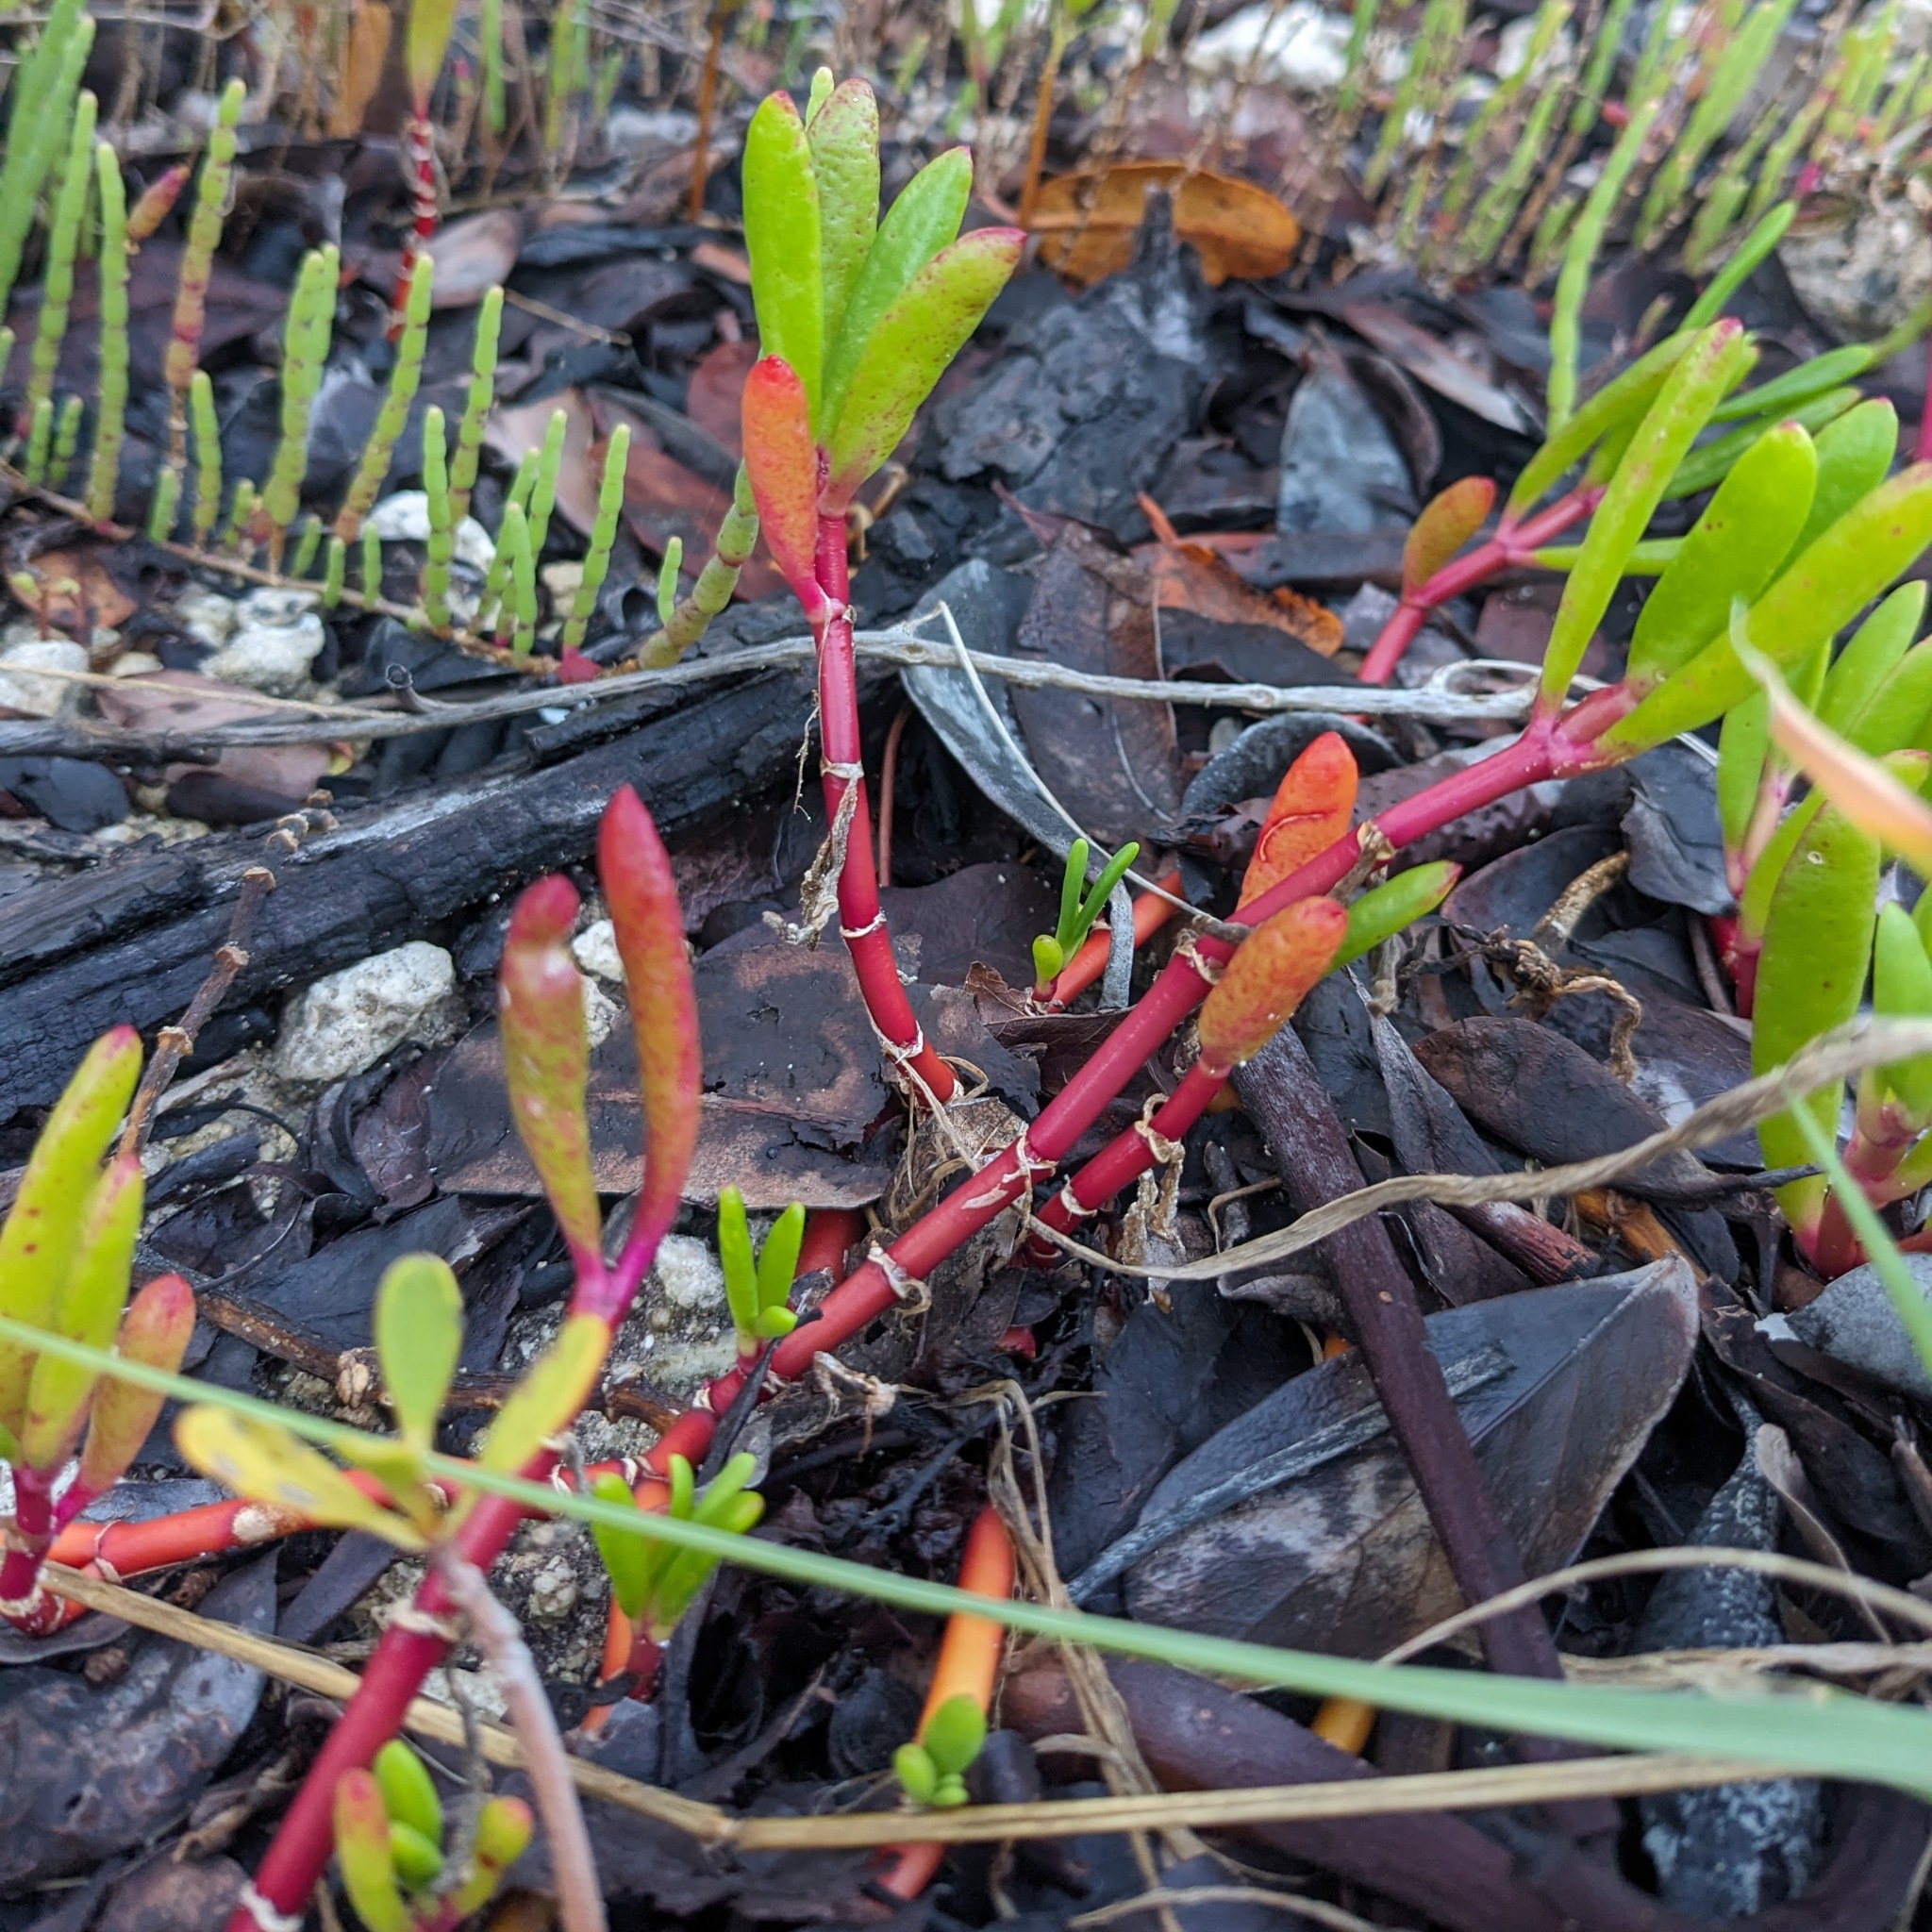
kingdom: Plantae
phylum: Tracheophyta
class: Magnoliopsida
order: Caryophyllales
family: Aizoaceae
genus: Sesuvium
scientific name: Sesuvium portulacastrum
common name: Sea-purslane
